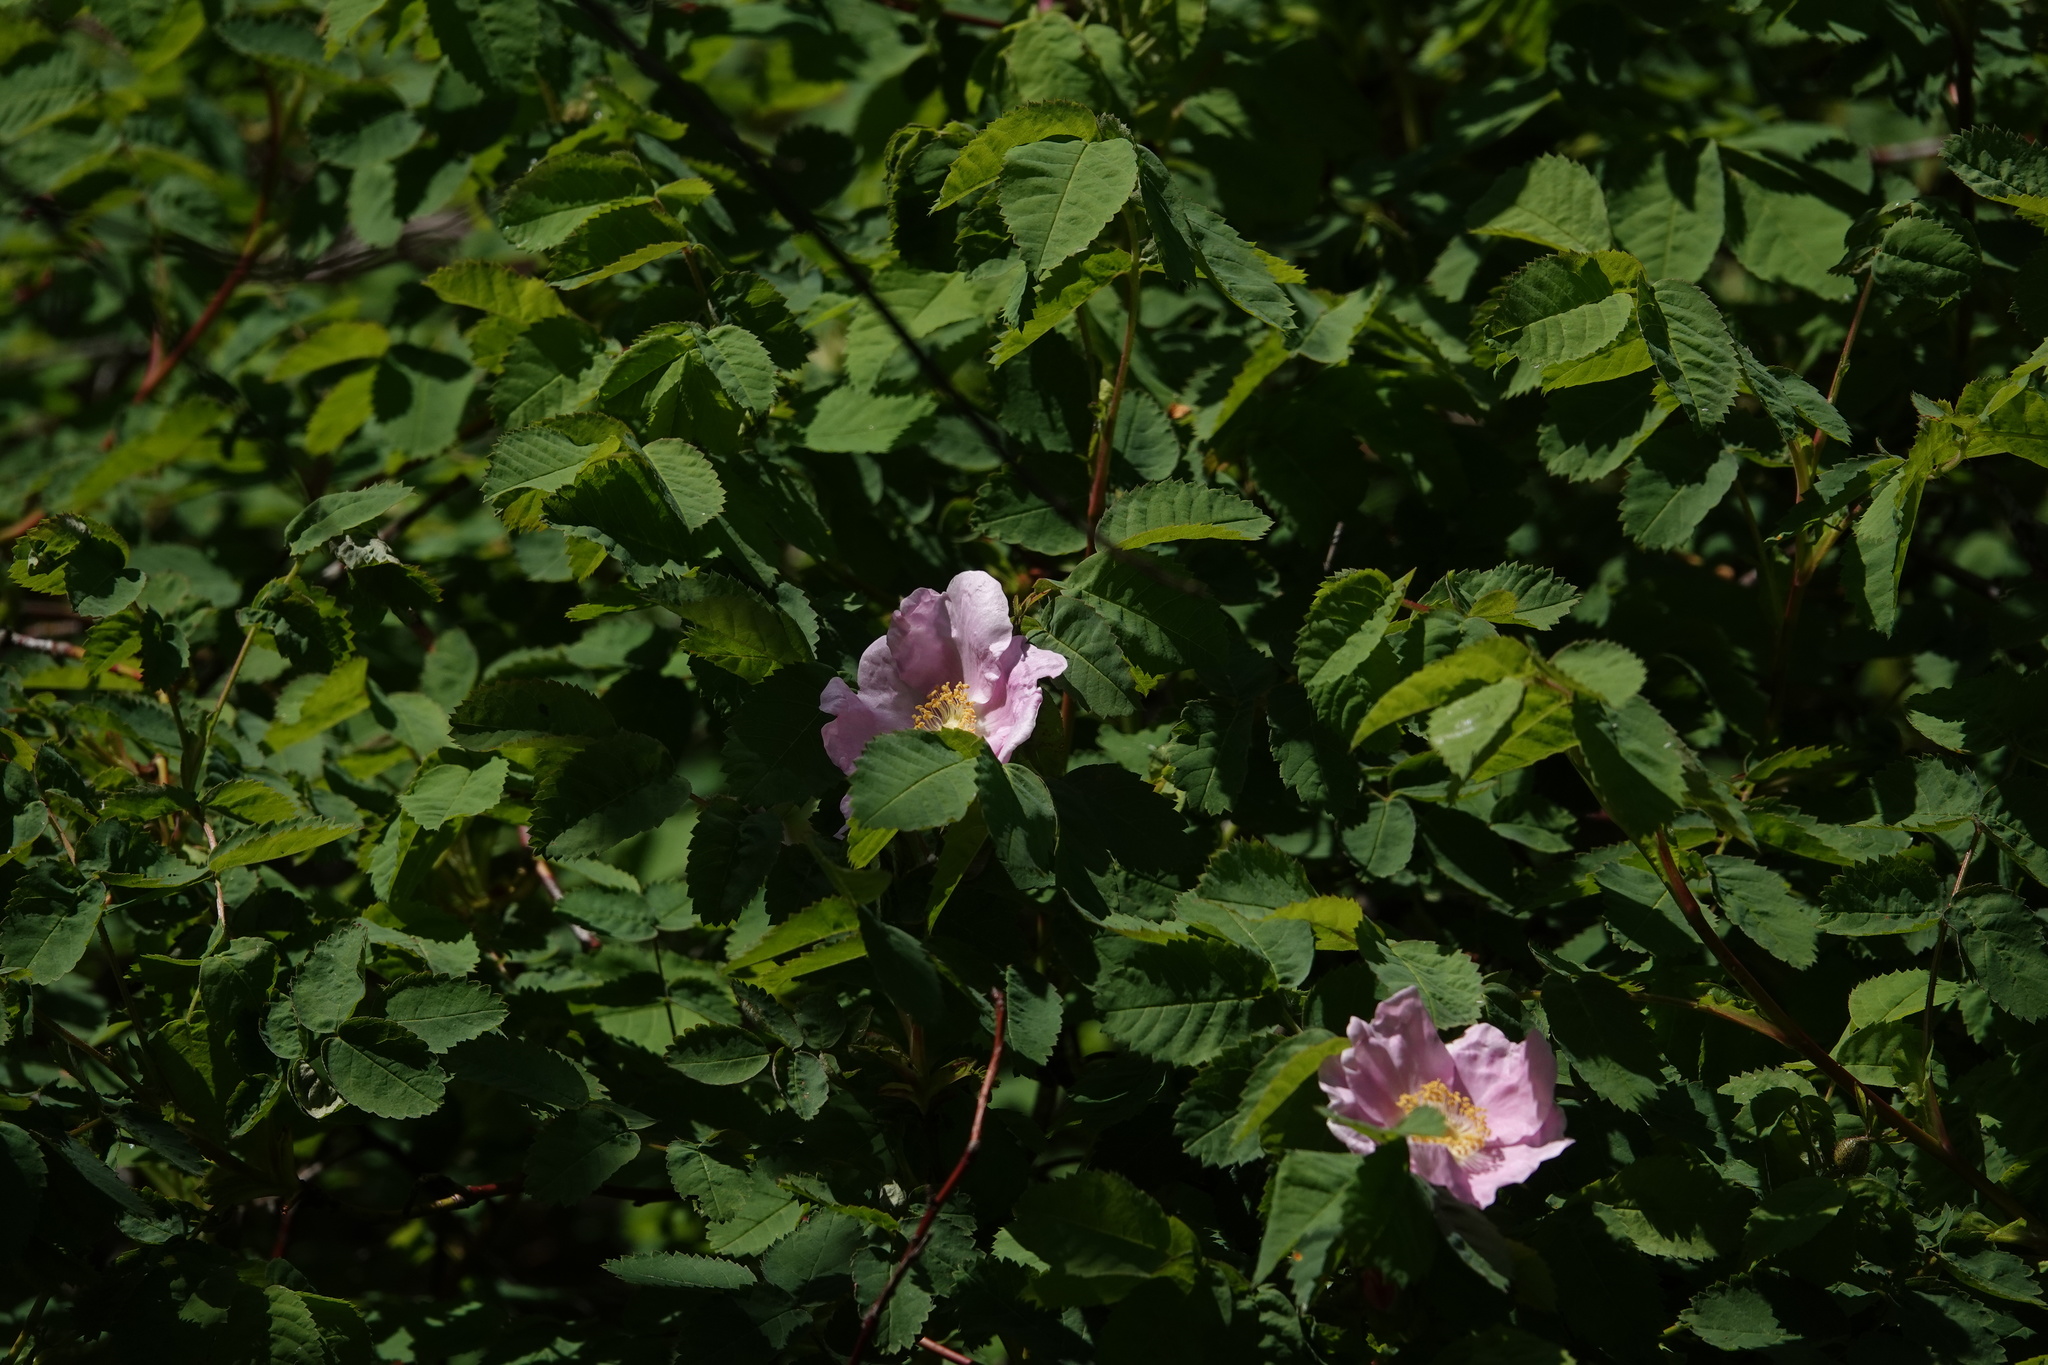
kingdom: Plantae
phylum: Tracheophyta
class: Magnoliopsida
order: Rosales
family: Rosaceae
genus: Rosa
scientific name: Rosa nutkana
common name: Nootka rose
